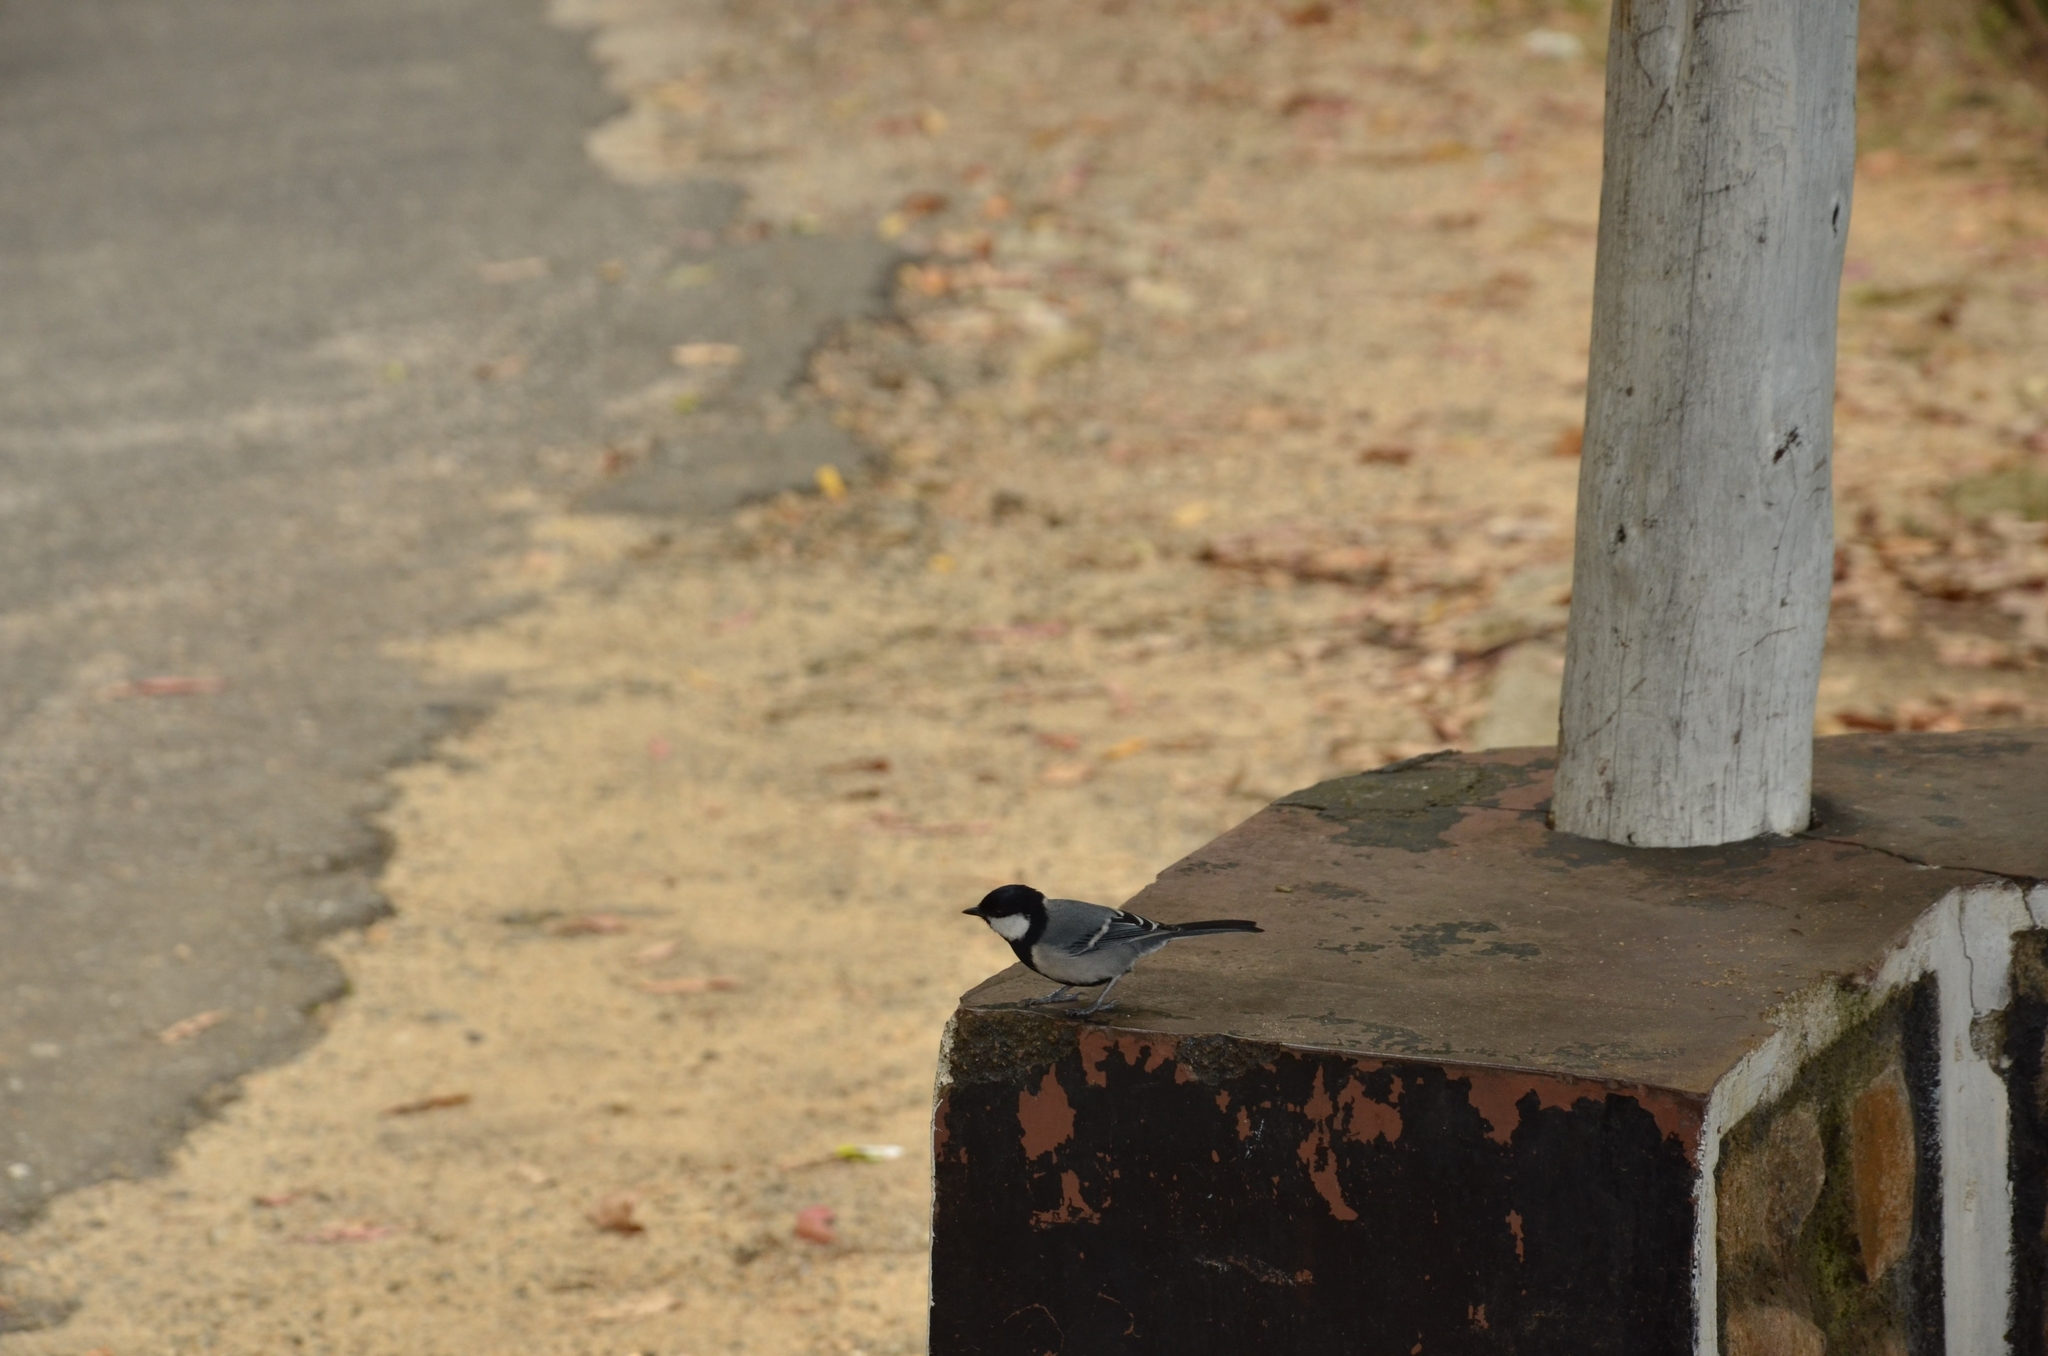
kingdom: Animalia
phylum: Chordata
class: Aves
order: Passeriformes
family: Paridae
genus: Parus
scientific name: Parus cinereus
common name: Cinereous tit
